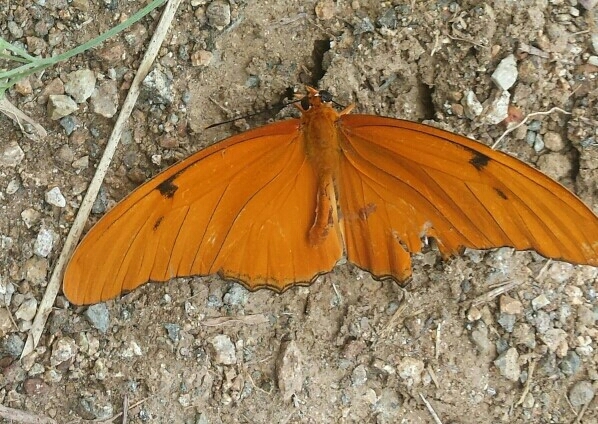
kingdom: Animalia
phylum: Arthropoda
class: Insecta
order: Lepidoptera
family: Nymphalidae
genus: Dryas
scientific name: Dryas iulia
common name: Flambeau
